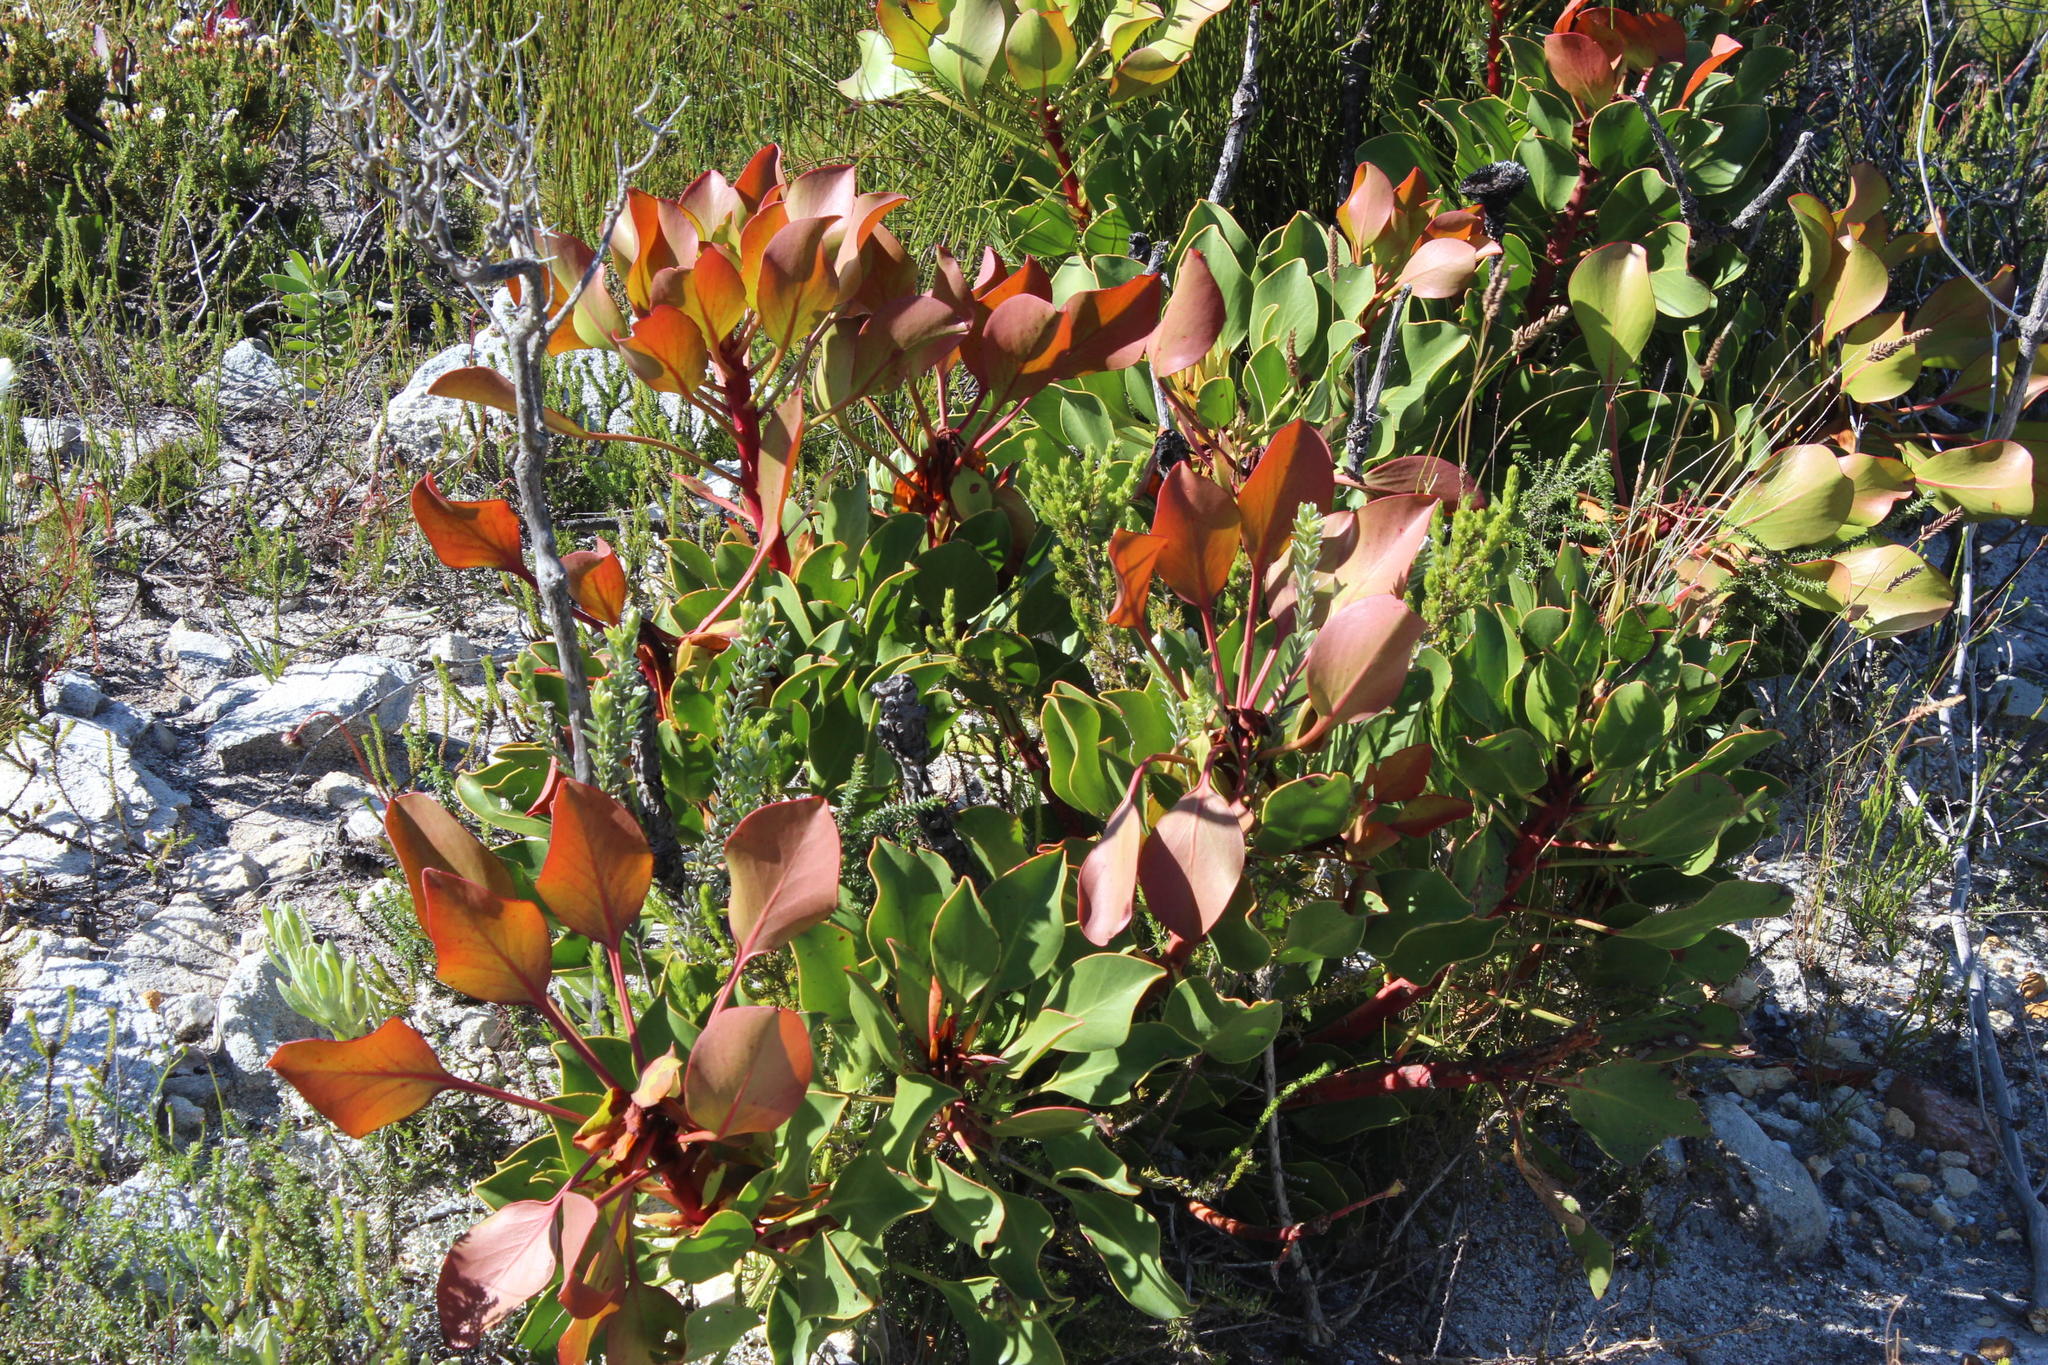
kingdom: Plantae
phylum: Tracheophyta
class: Magnoliopsida
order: Proteales
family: Proteaceae
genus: Protea
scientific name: Protea cynaroides
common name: King protea
